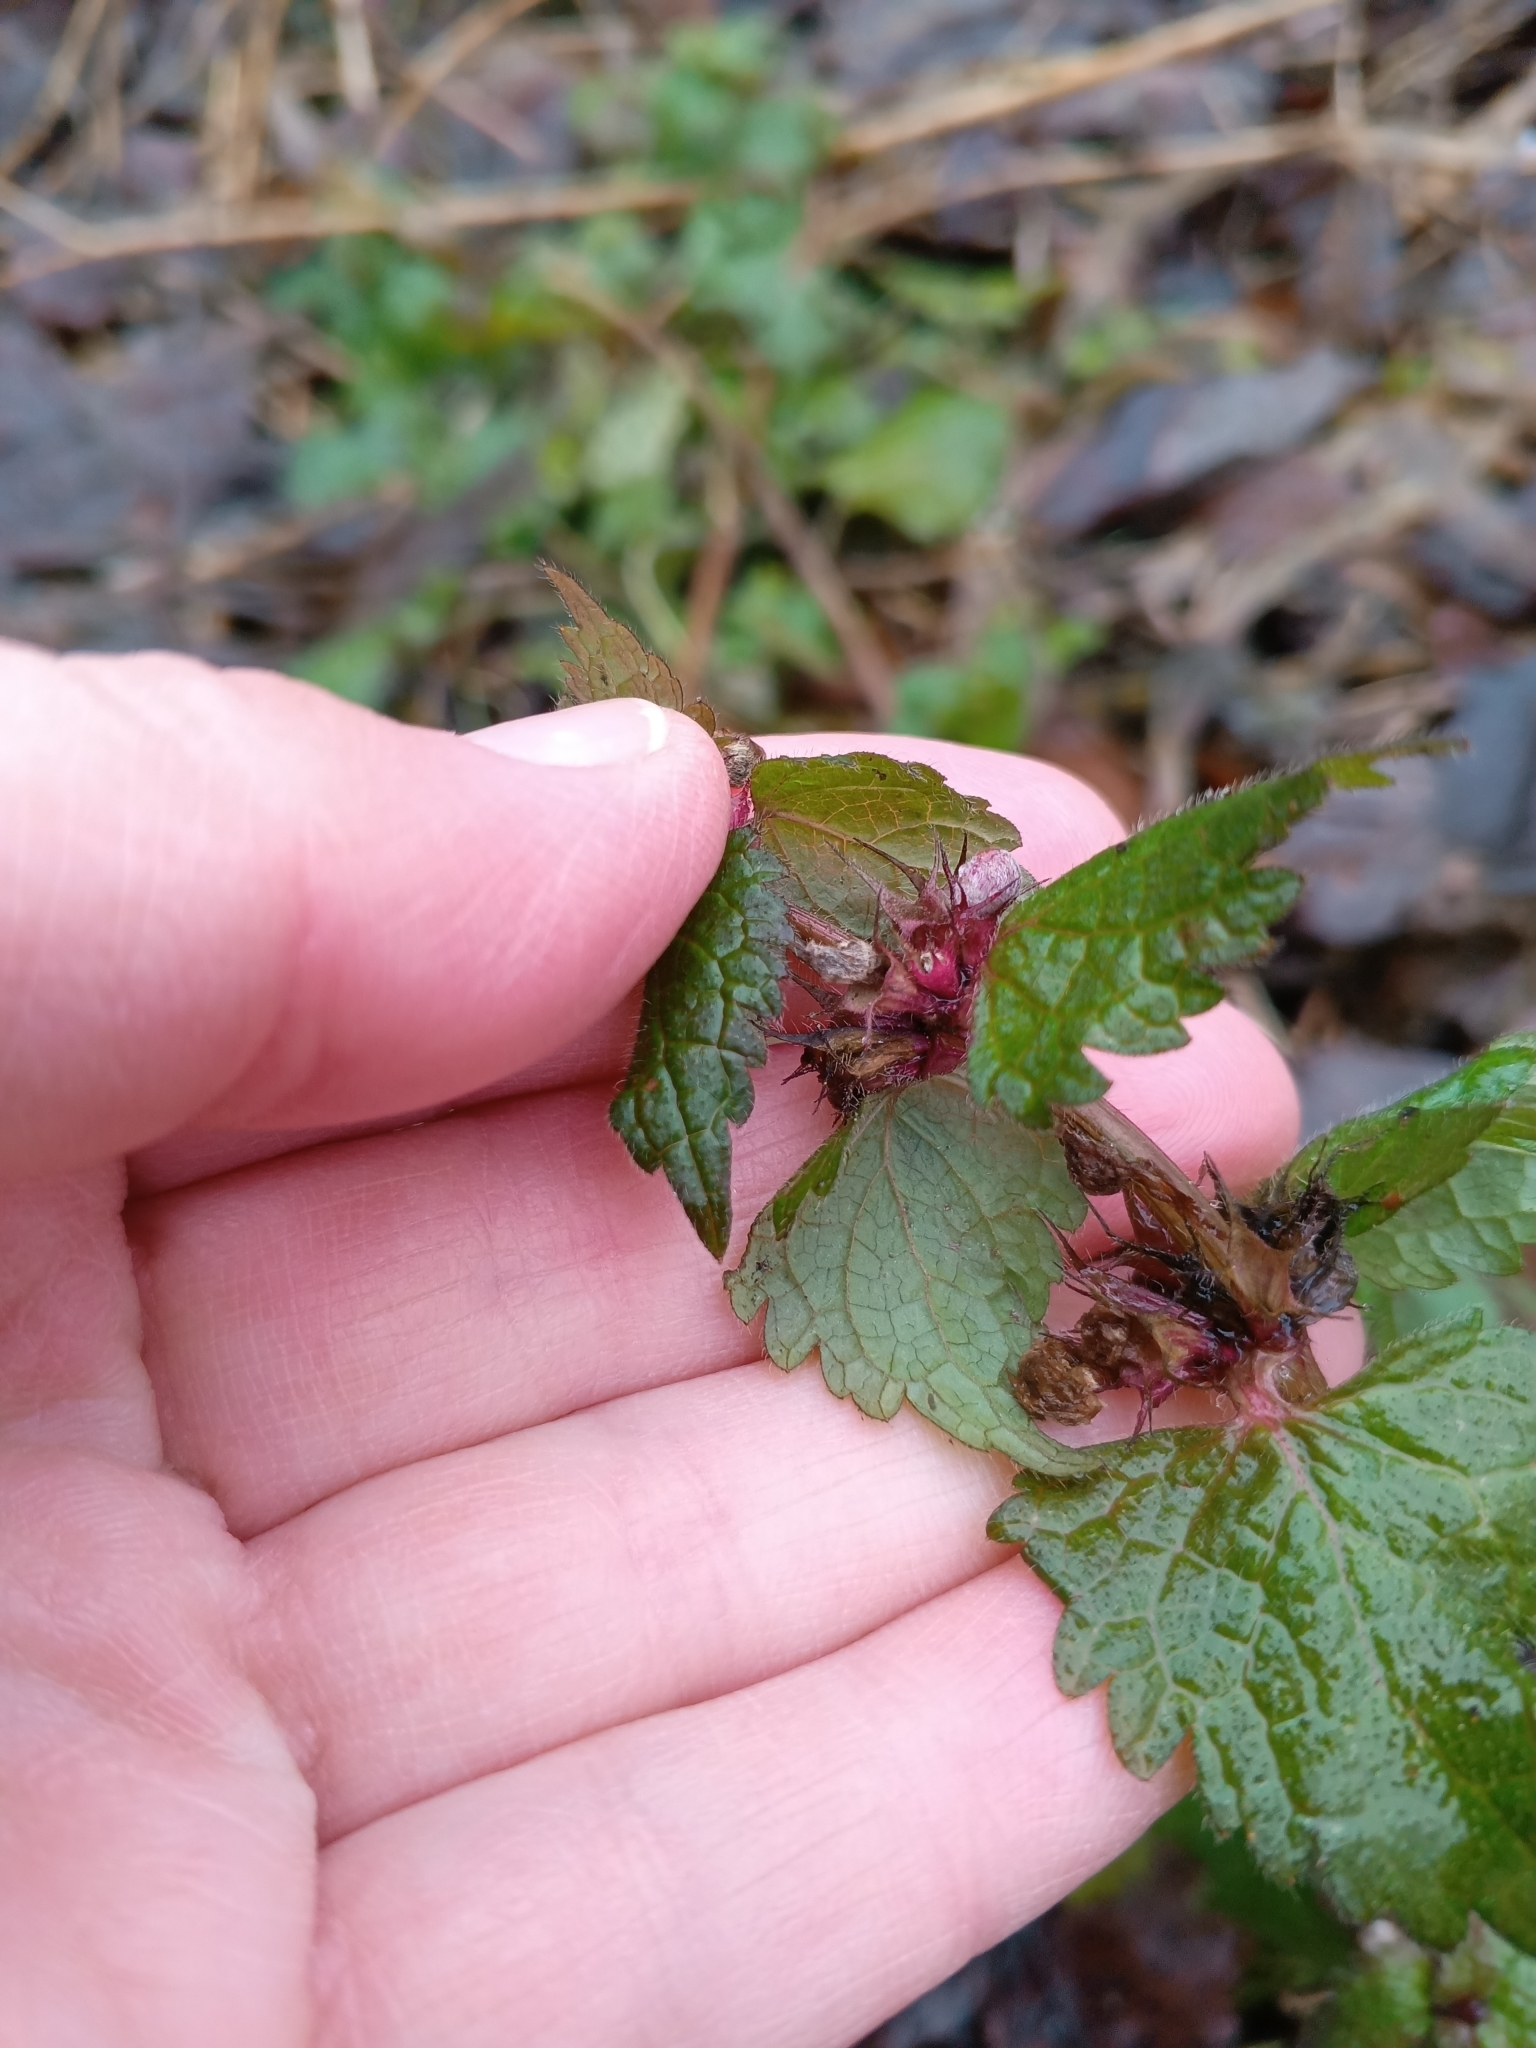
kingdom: Plantae
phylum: Tracheophyta
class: Magnoliopsida
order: Lamiales
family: Lamiaceae
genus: Lamium
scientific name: Lamium maculatum
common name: Spotted dead-nettle
